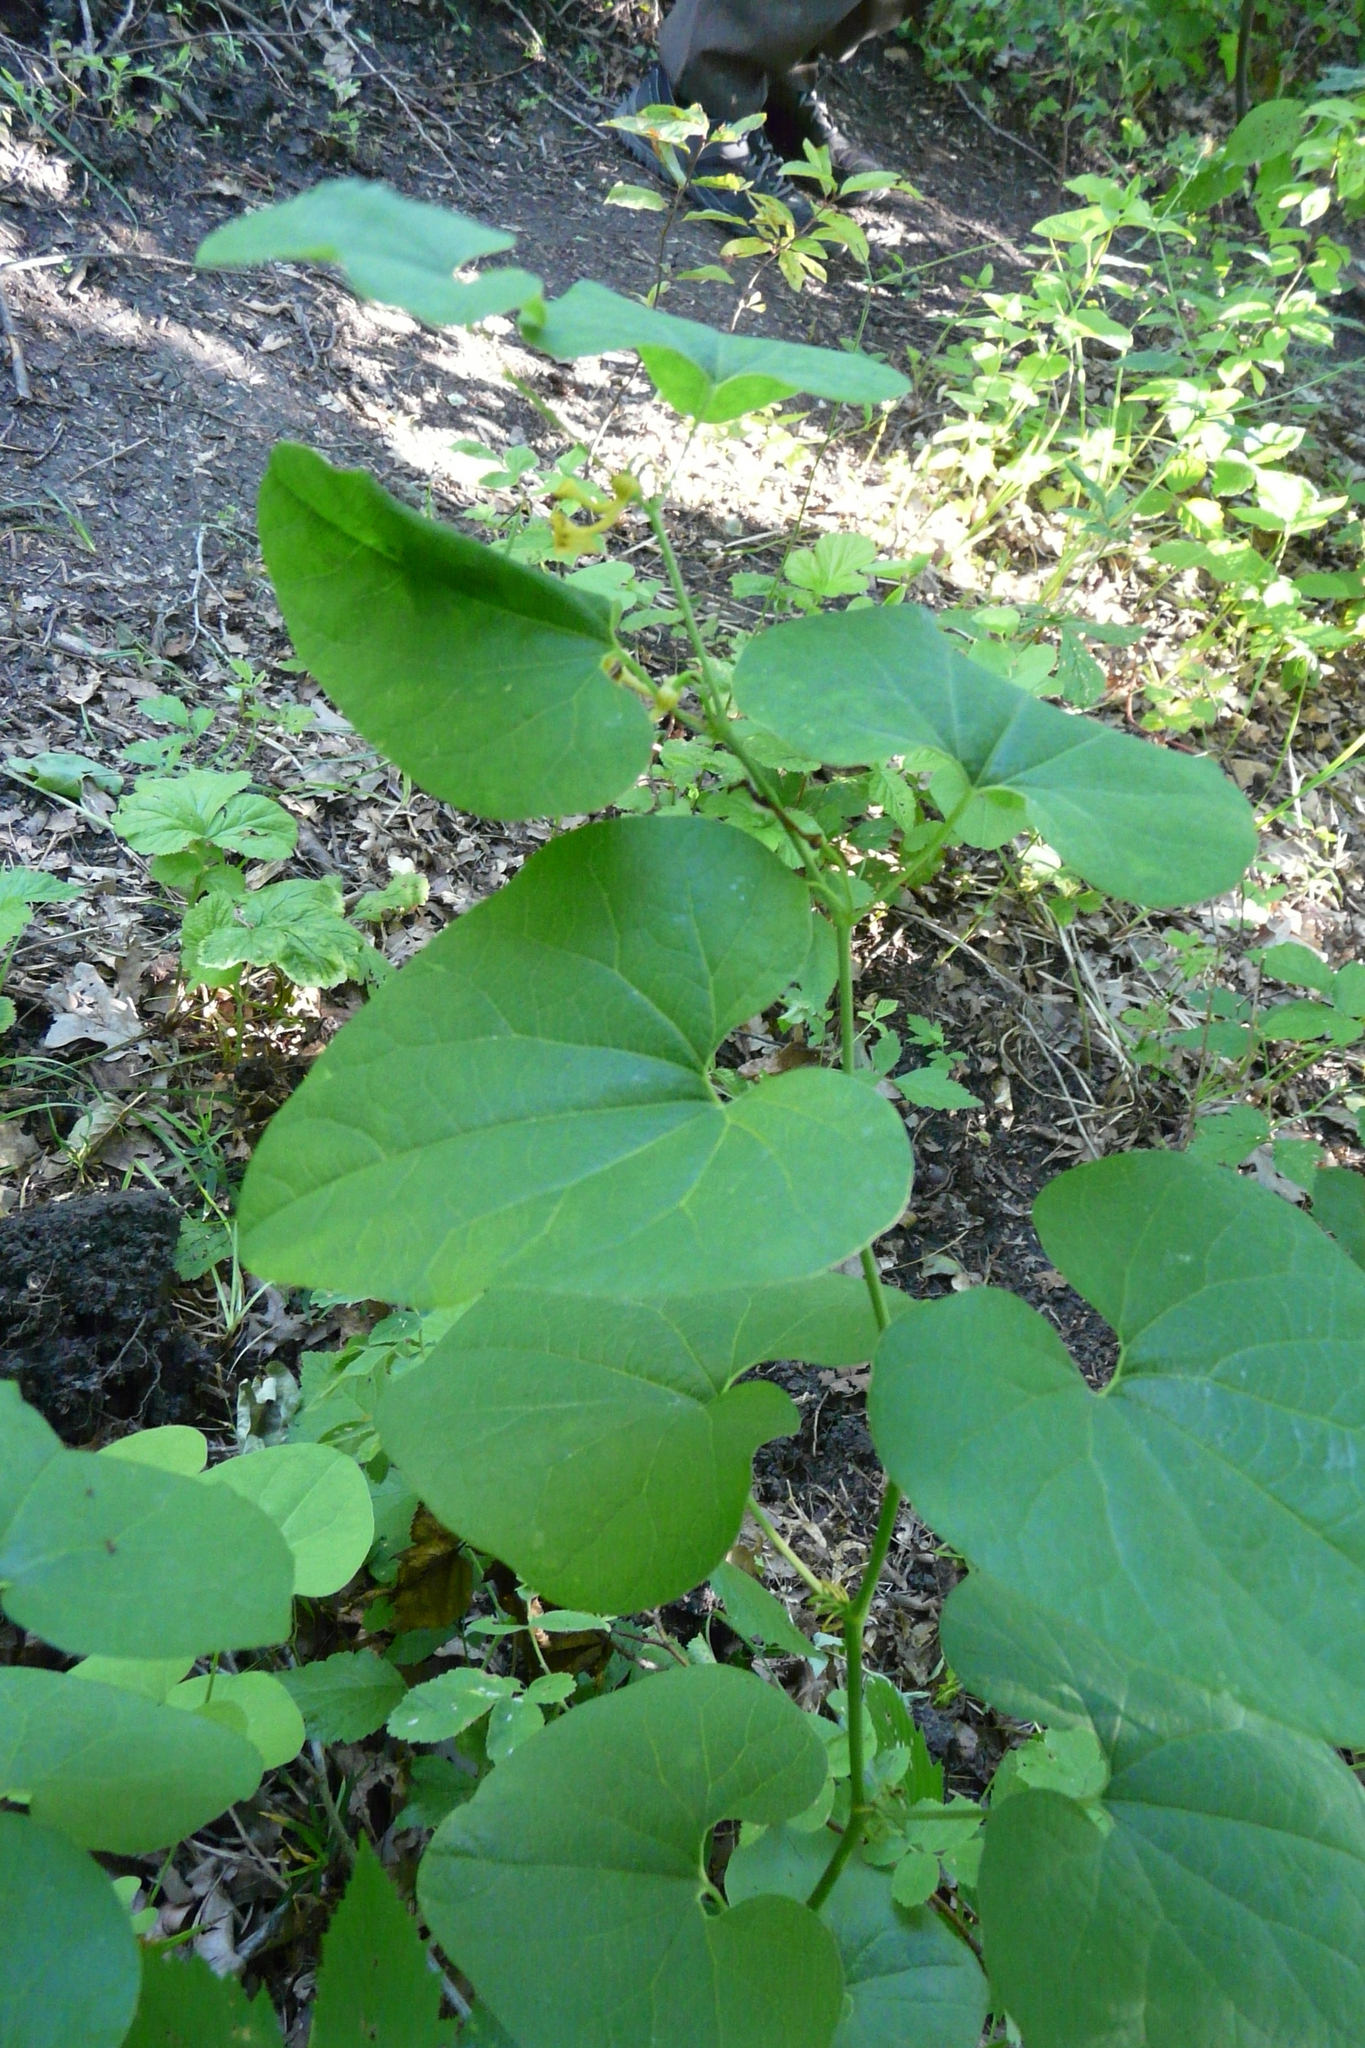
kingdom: Plantae
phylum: Tracheophyta
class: Magnoliopsida
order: Piperales
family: Aristolochiaceae
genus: Aristolochia
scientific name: Aristolochia clematitis
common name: Birthwort
